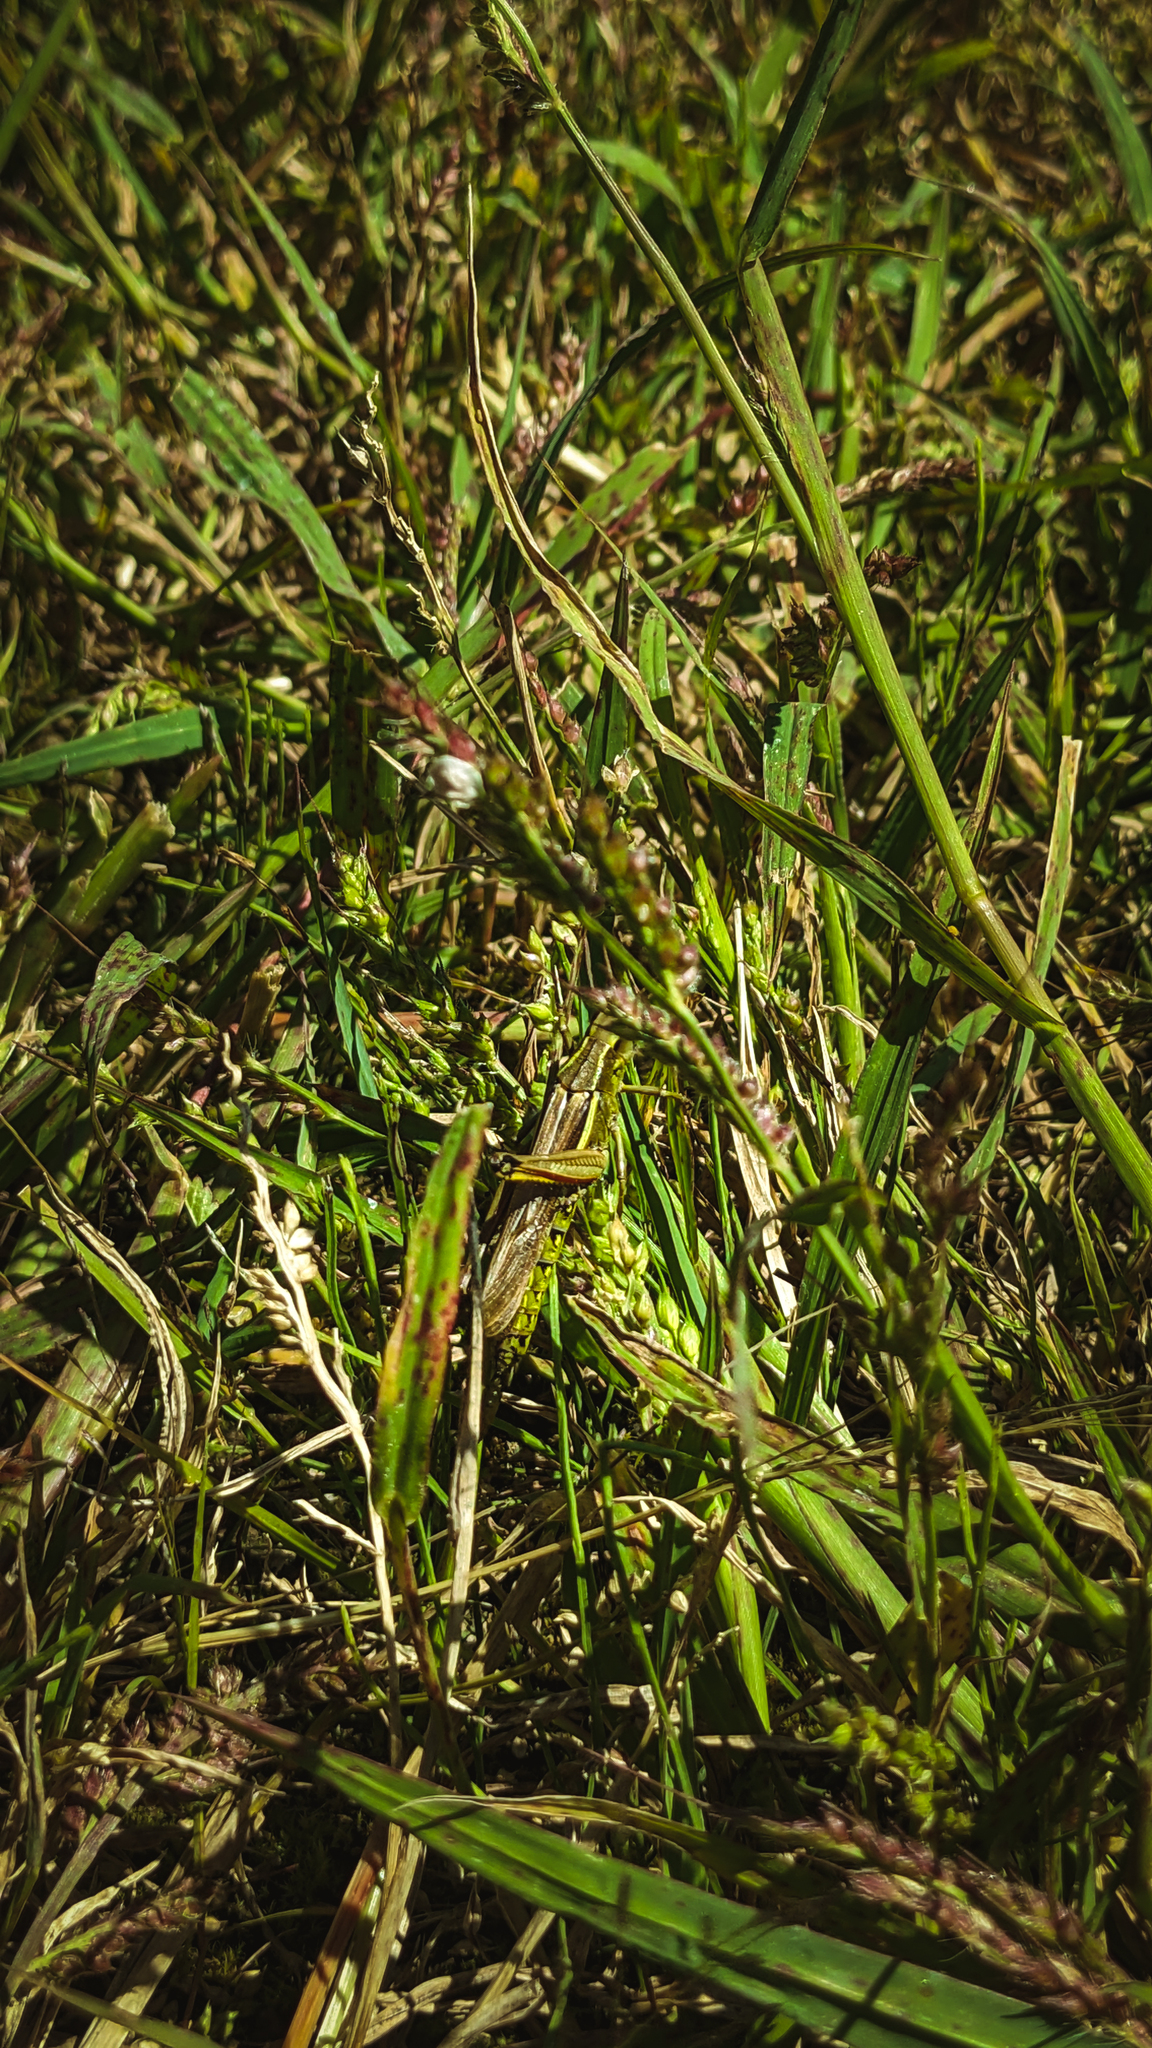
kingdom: Animalia
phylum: Arthropoda
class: Insecta
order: Orthoptera
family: Acrididae
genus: Stethophyma
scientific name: Stethophyma grossum
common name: Large marsh grasshopper
